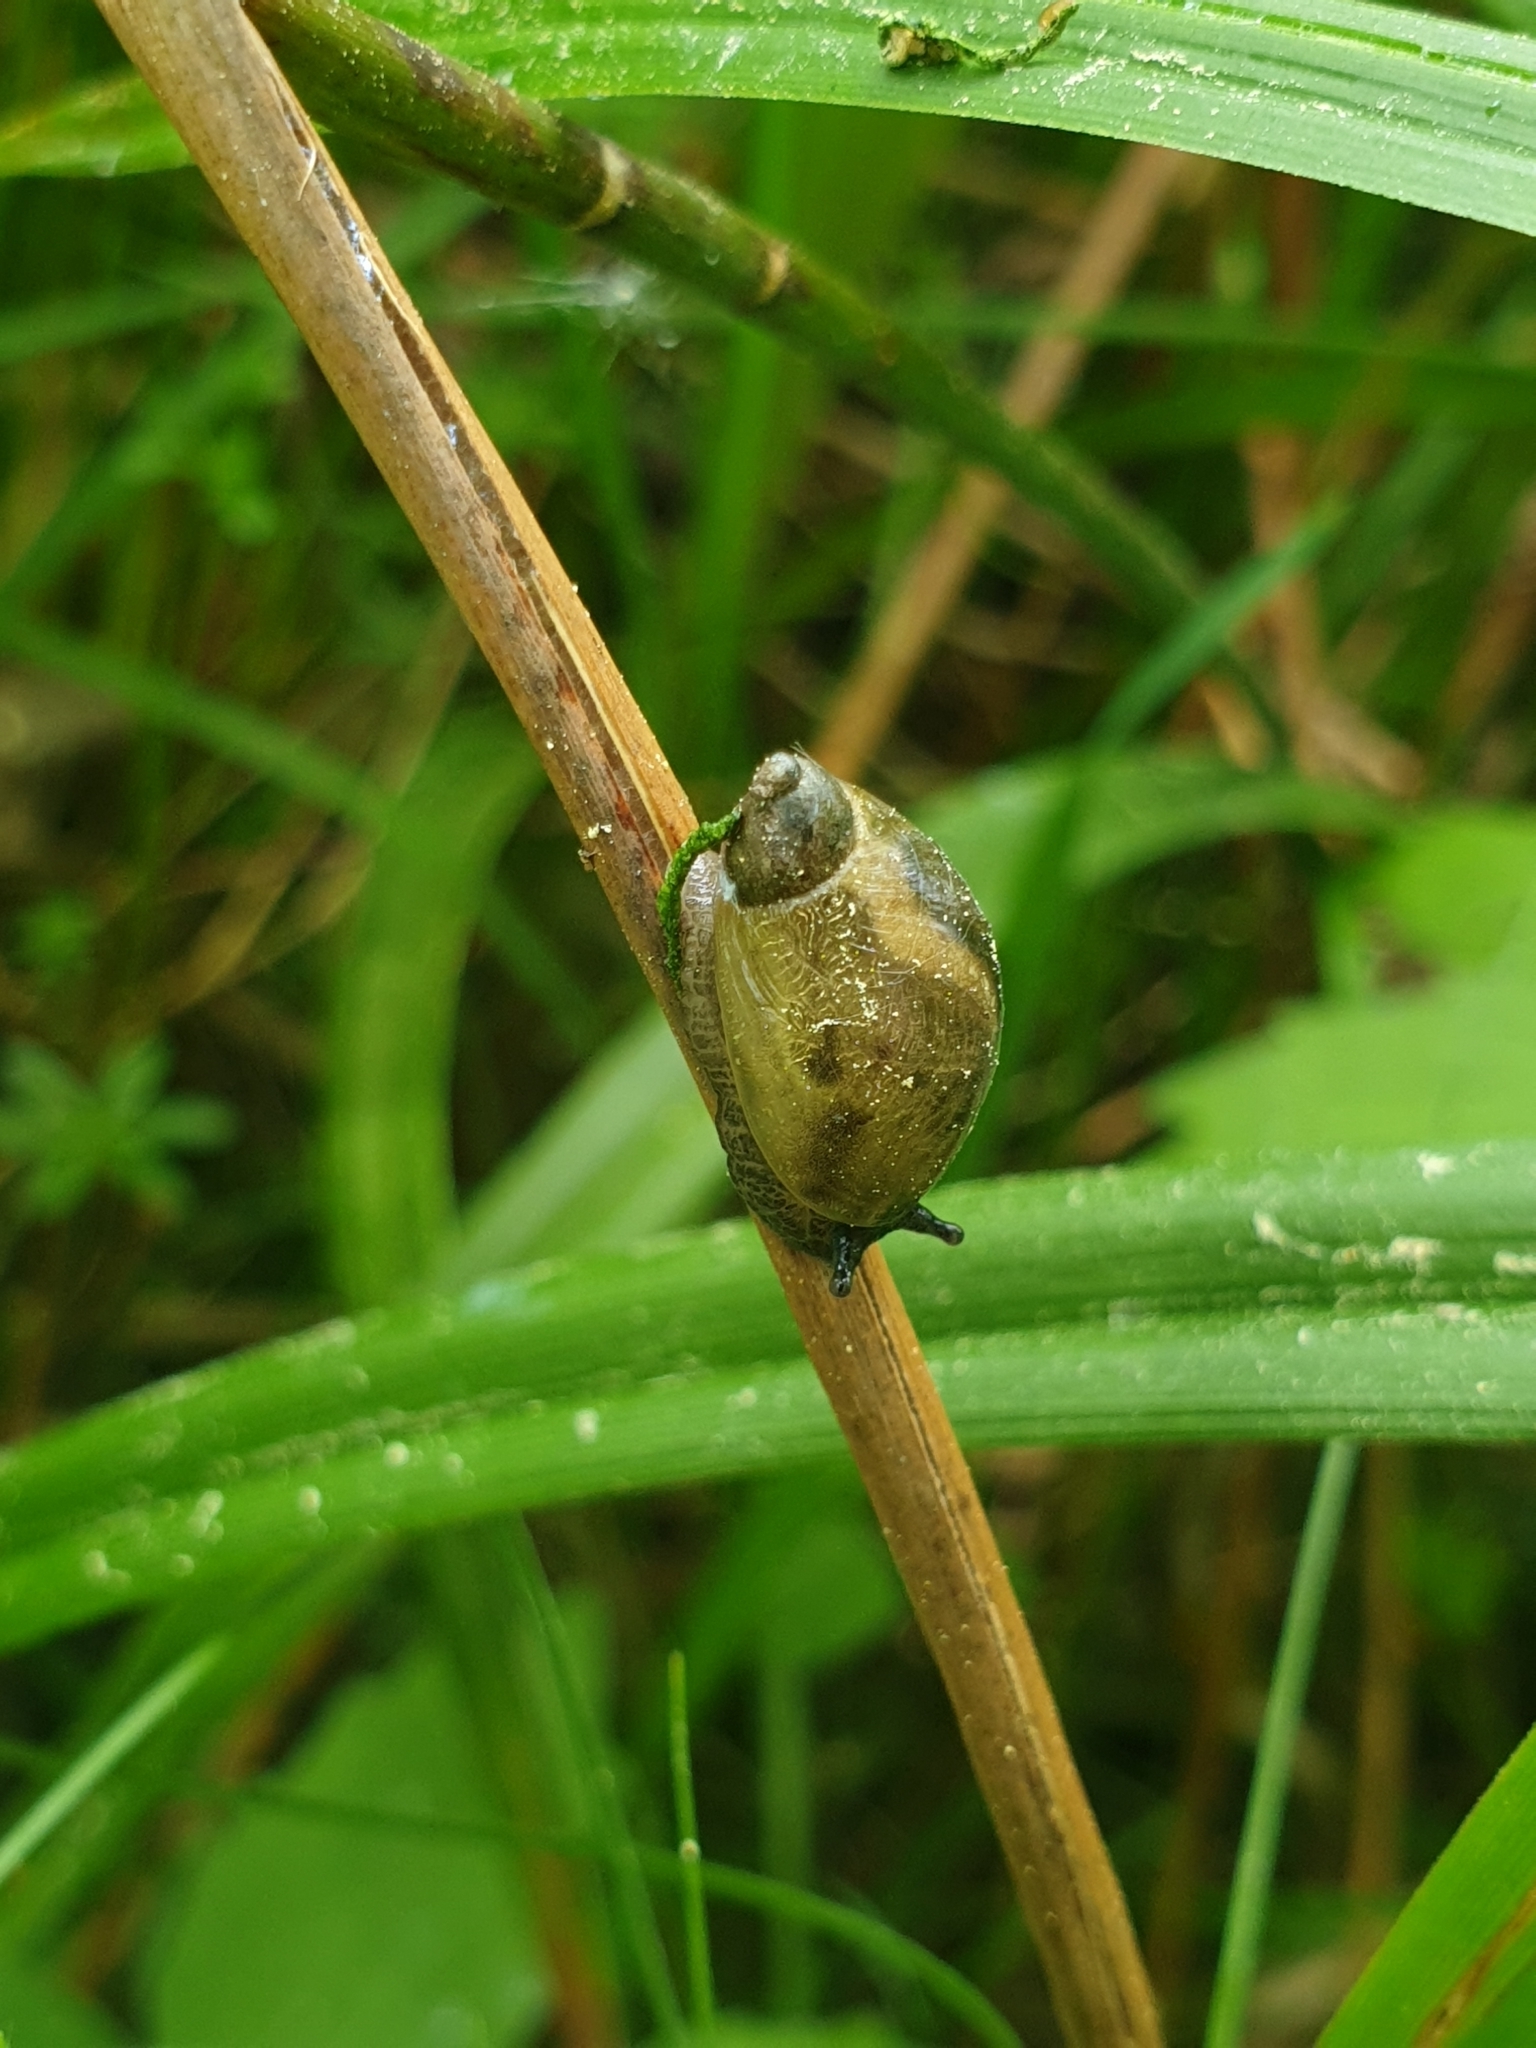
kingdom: Animalia
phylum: Mollusca
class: Gastropoda
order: Stylommatophora
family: Succineidae
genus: Succinea
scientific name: Succinea putris
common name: European ambersnail
